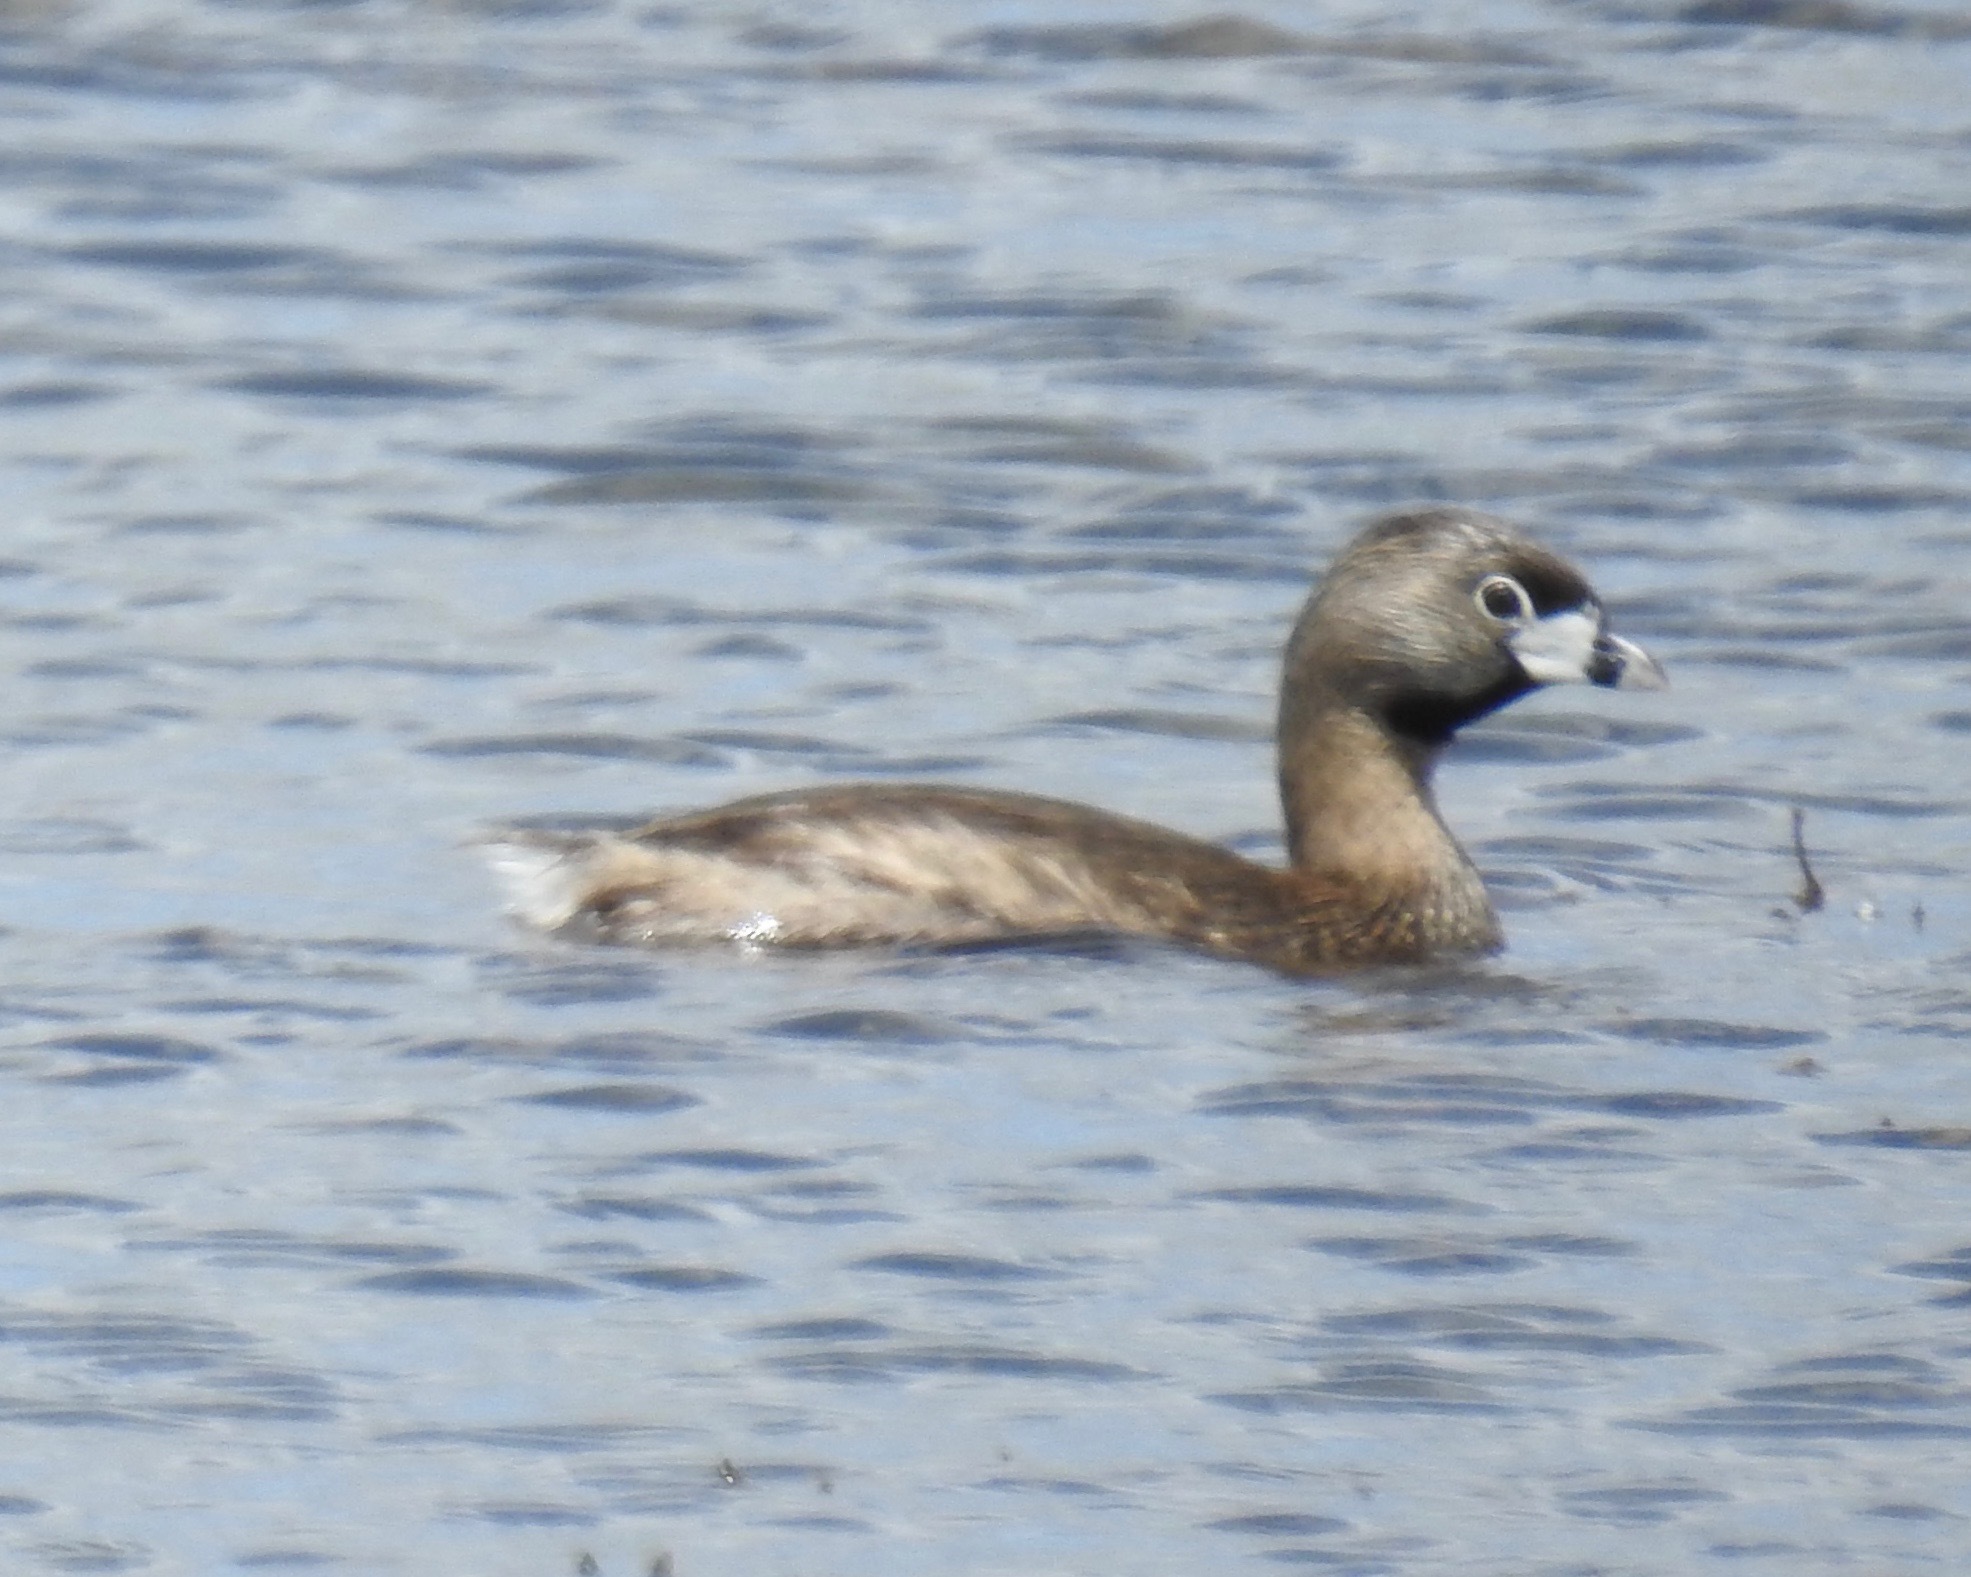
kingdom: Animalia
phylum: Chordata
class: Aves
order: Podicipediformes
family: Podicipedidae
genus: Podilymbus
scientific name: Podilymbus podiceps
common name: Pied-billed grebe
